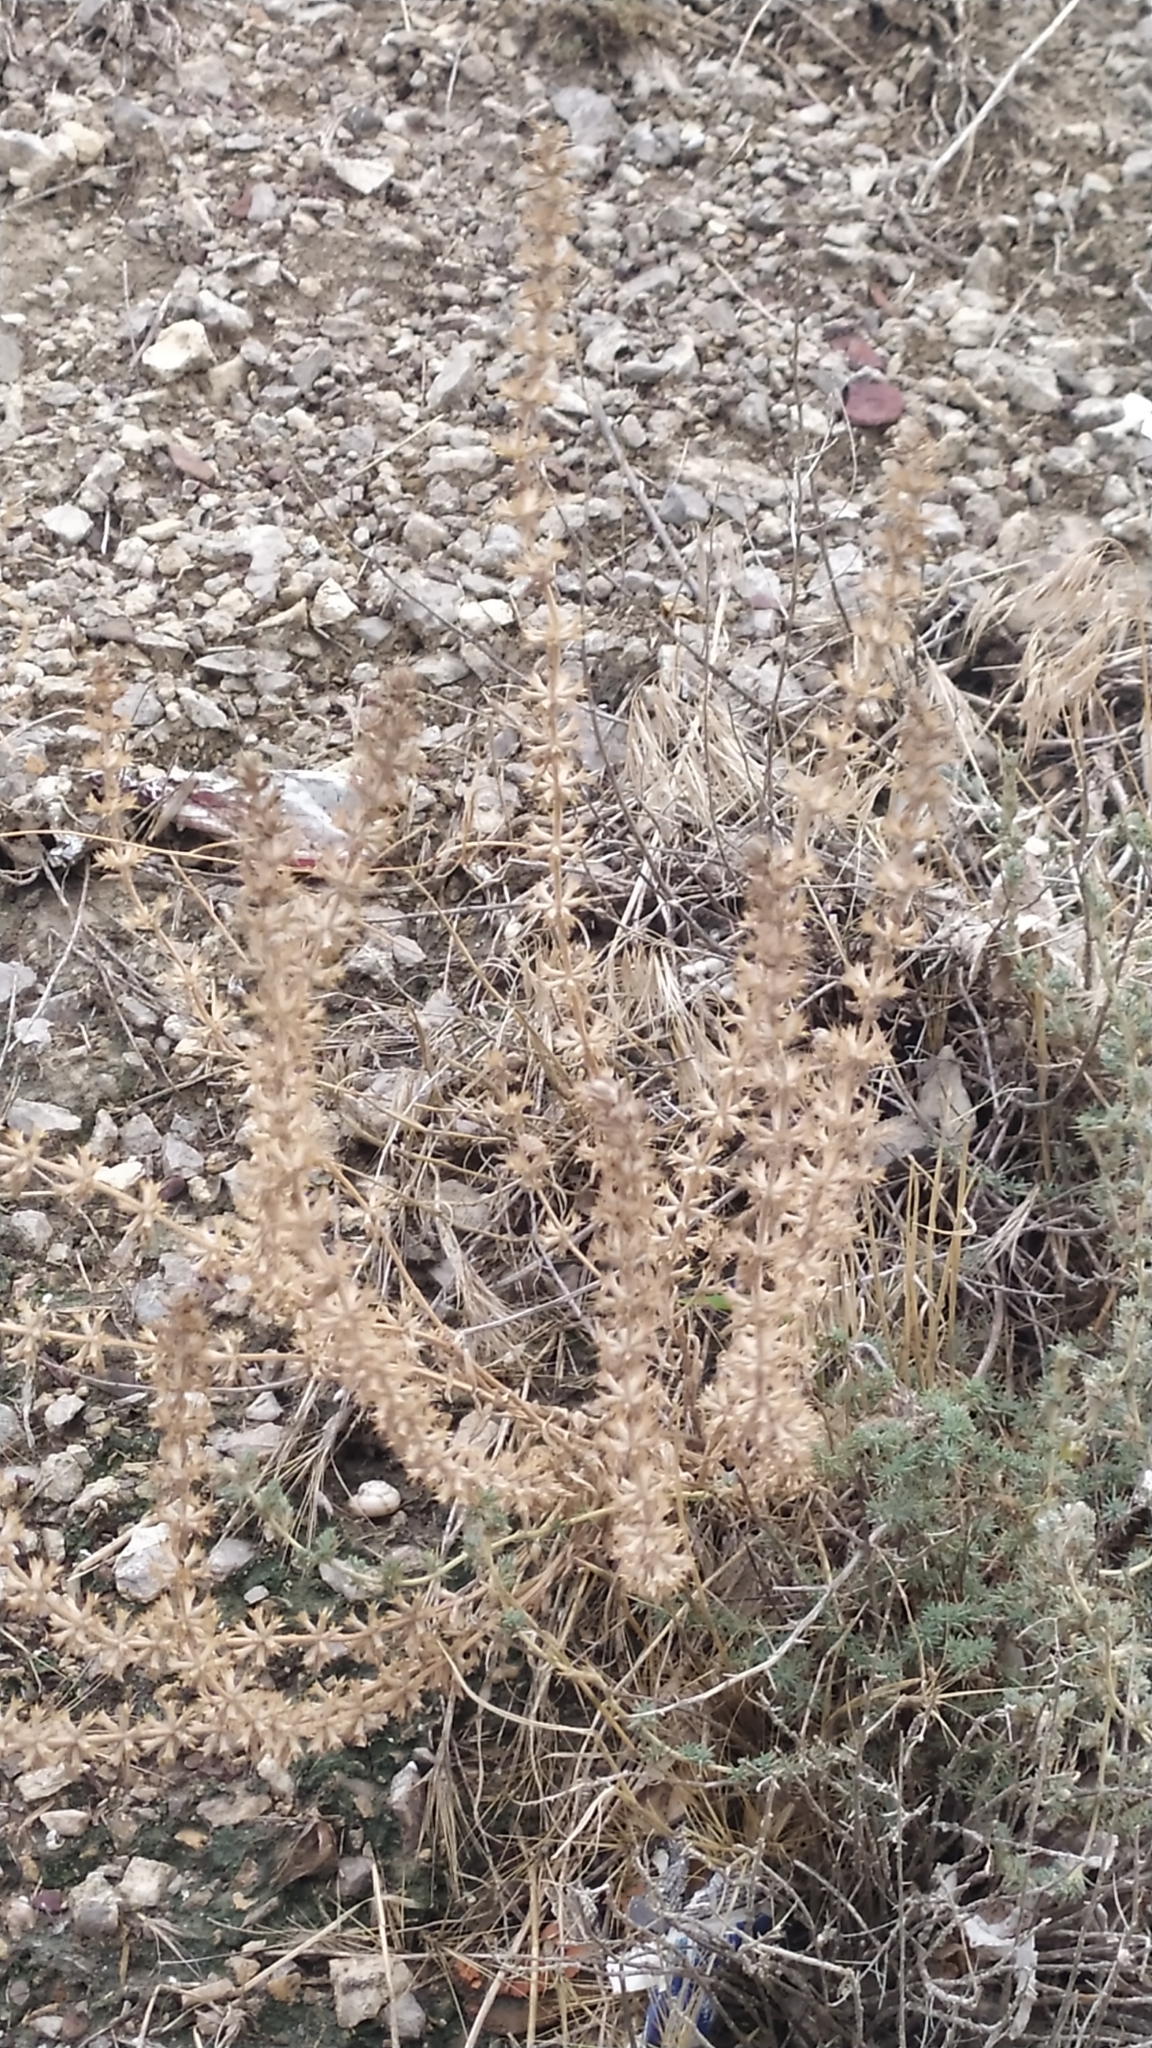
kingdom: Plantae
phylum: Tracheophyta
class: Magnoliopsida
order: Lamiales
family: Lamiaceae
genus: Sideritis
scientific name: Sideritis montana
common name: Mountain ironwort
